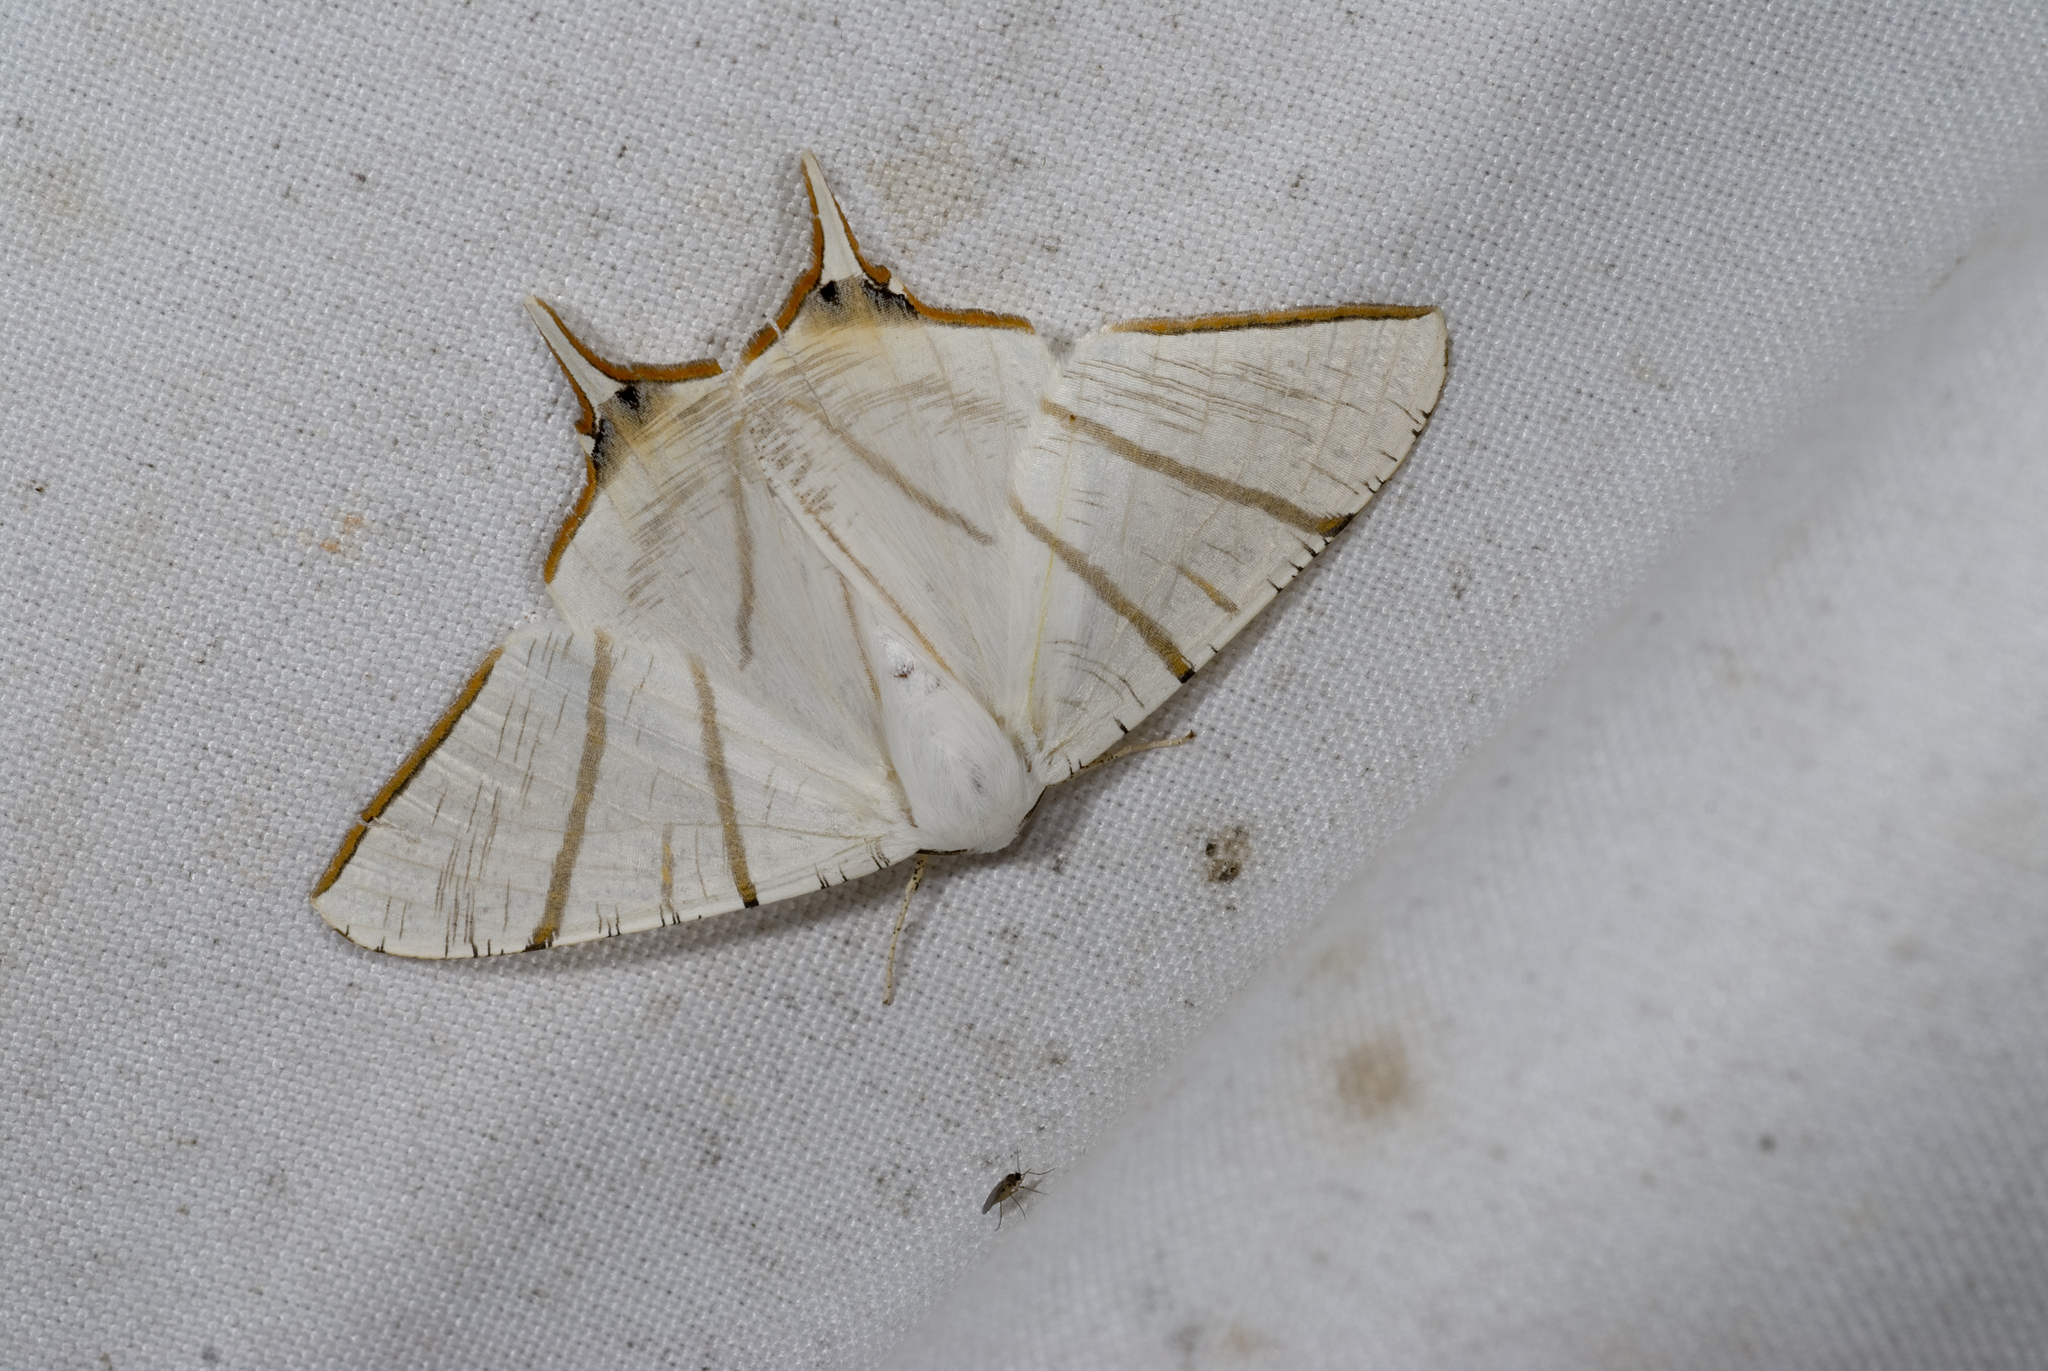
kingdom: Animalia
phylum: Arthropoda
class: Insecta
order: Lepidoptera
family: Geometridae
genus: Ourapteryx
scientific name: Ourapteryx clara
